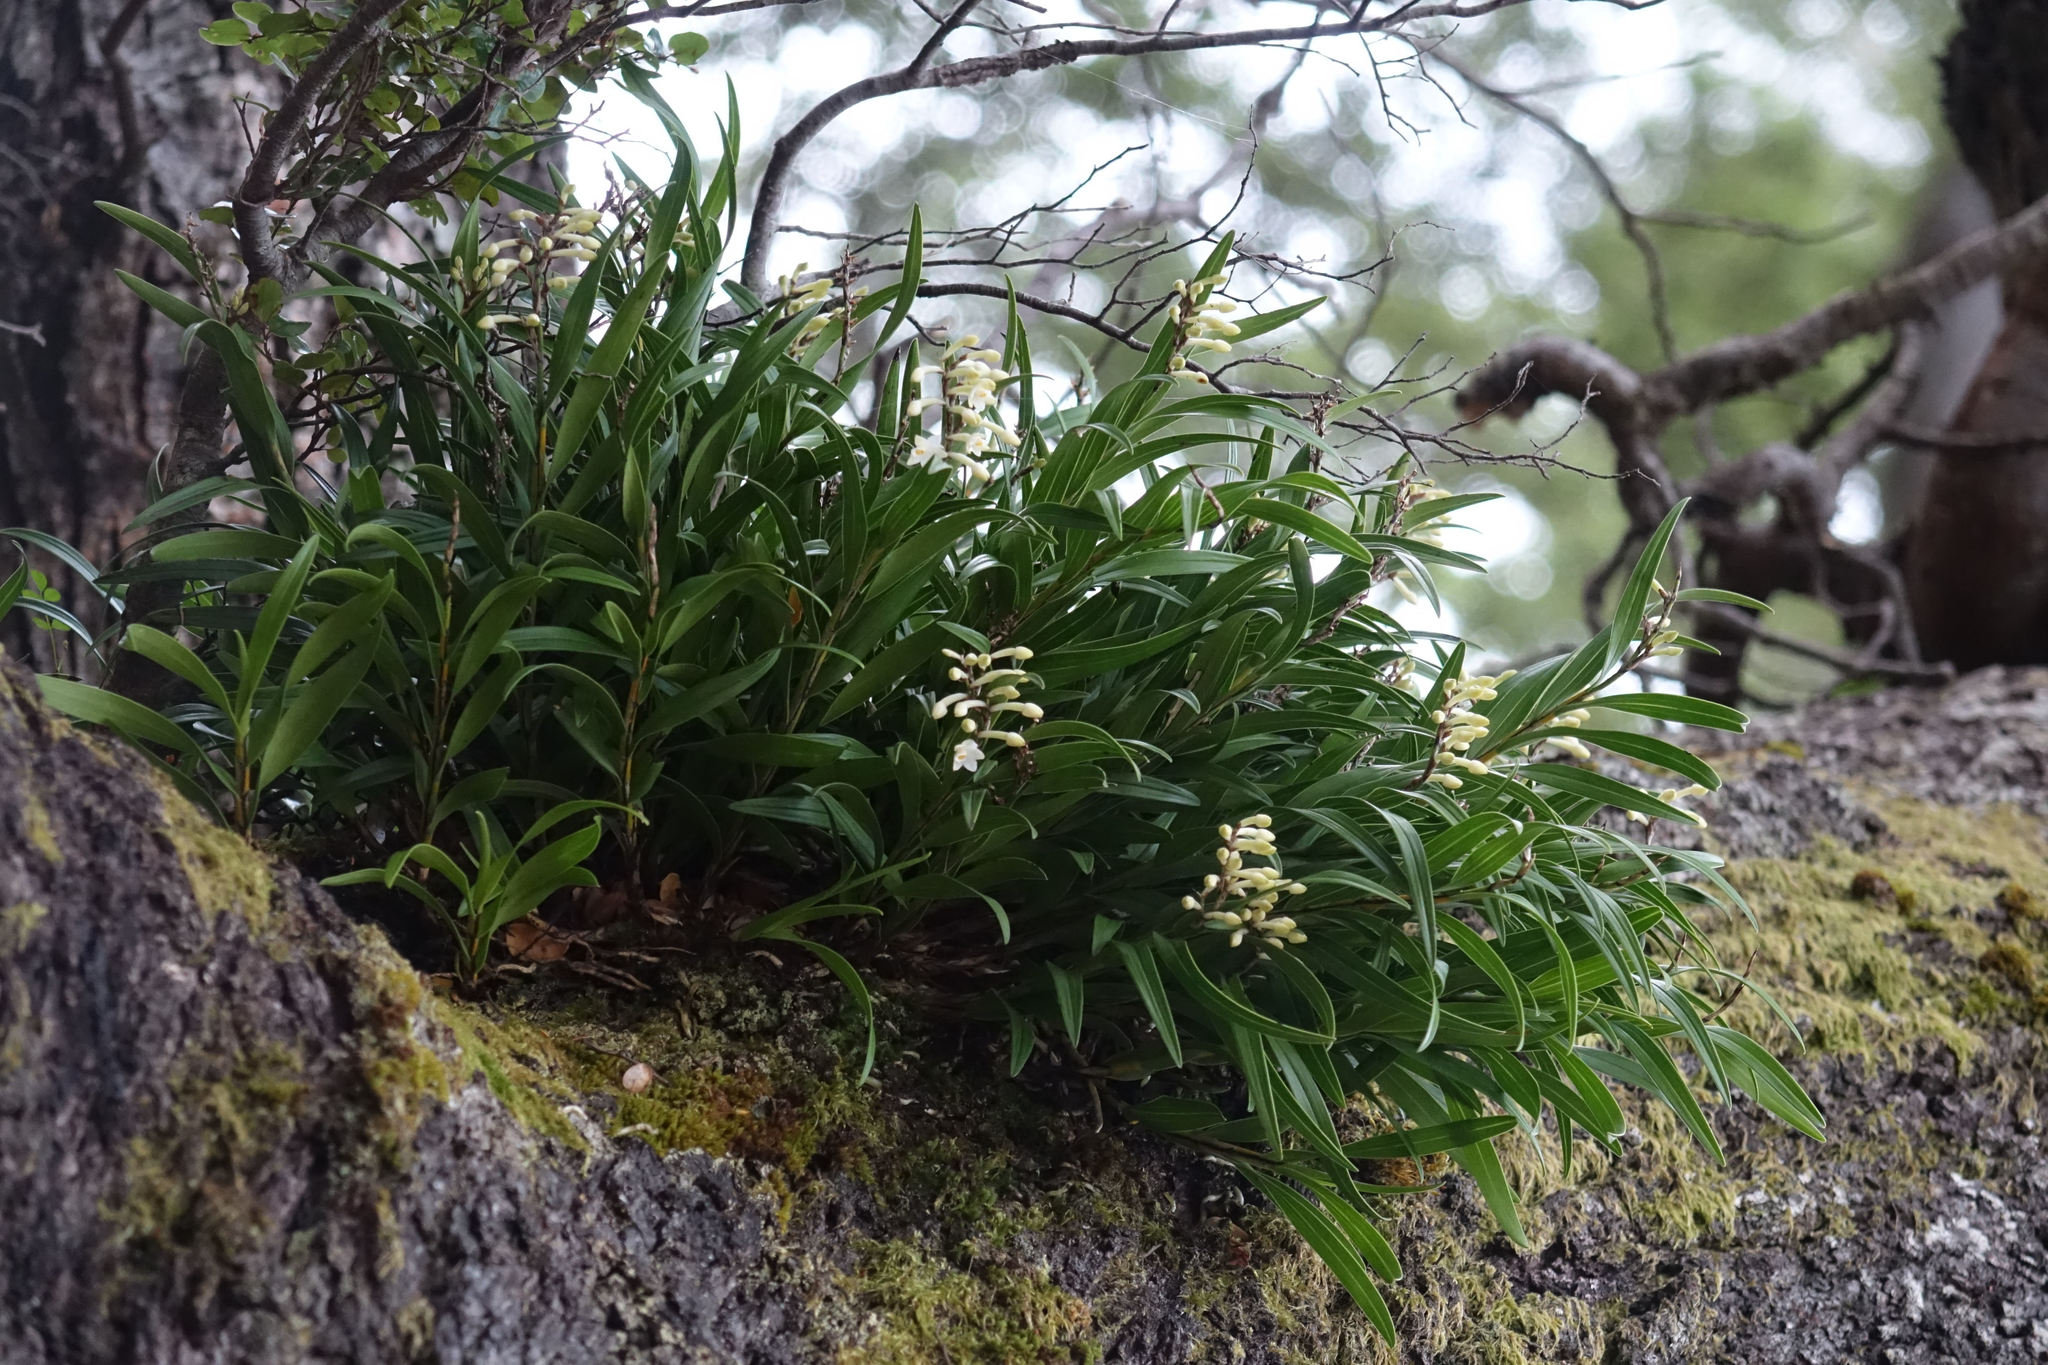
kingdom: Plantae
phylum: Tracheophyta
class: Liliopsida
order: Asparagales
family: Orchidaceae
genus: Earina
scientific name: Earina autumnalis
